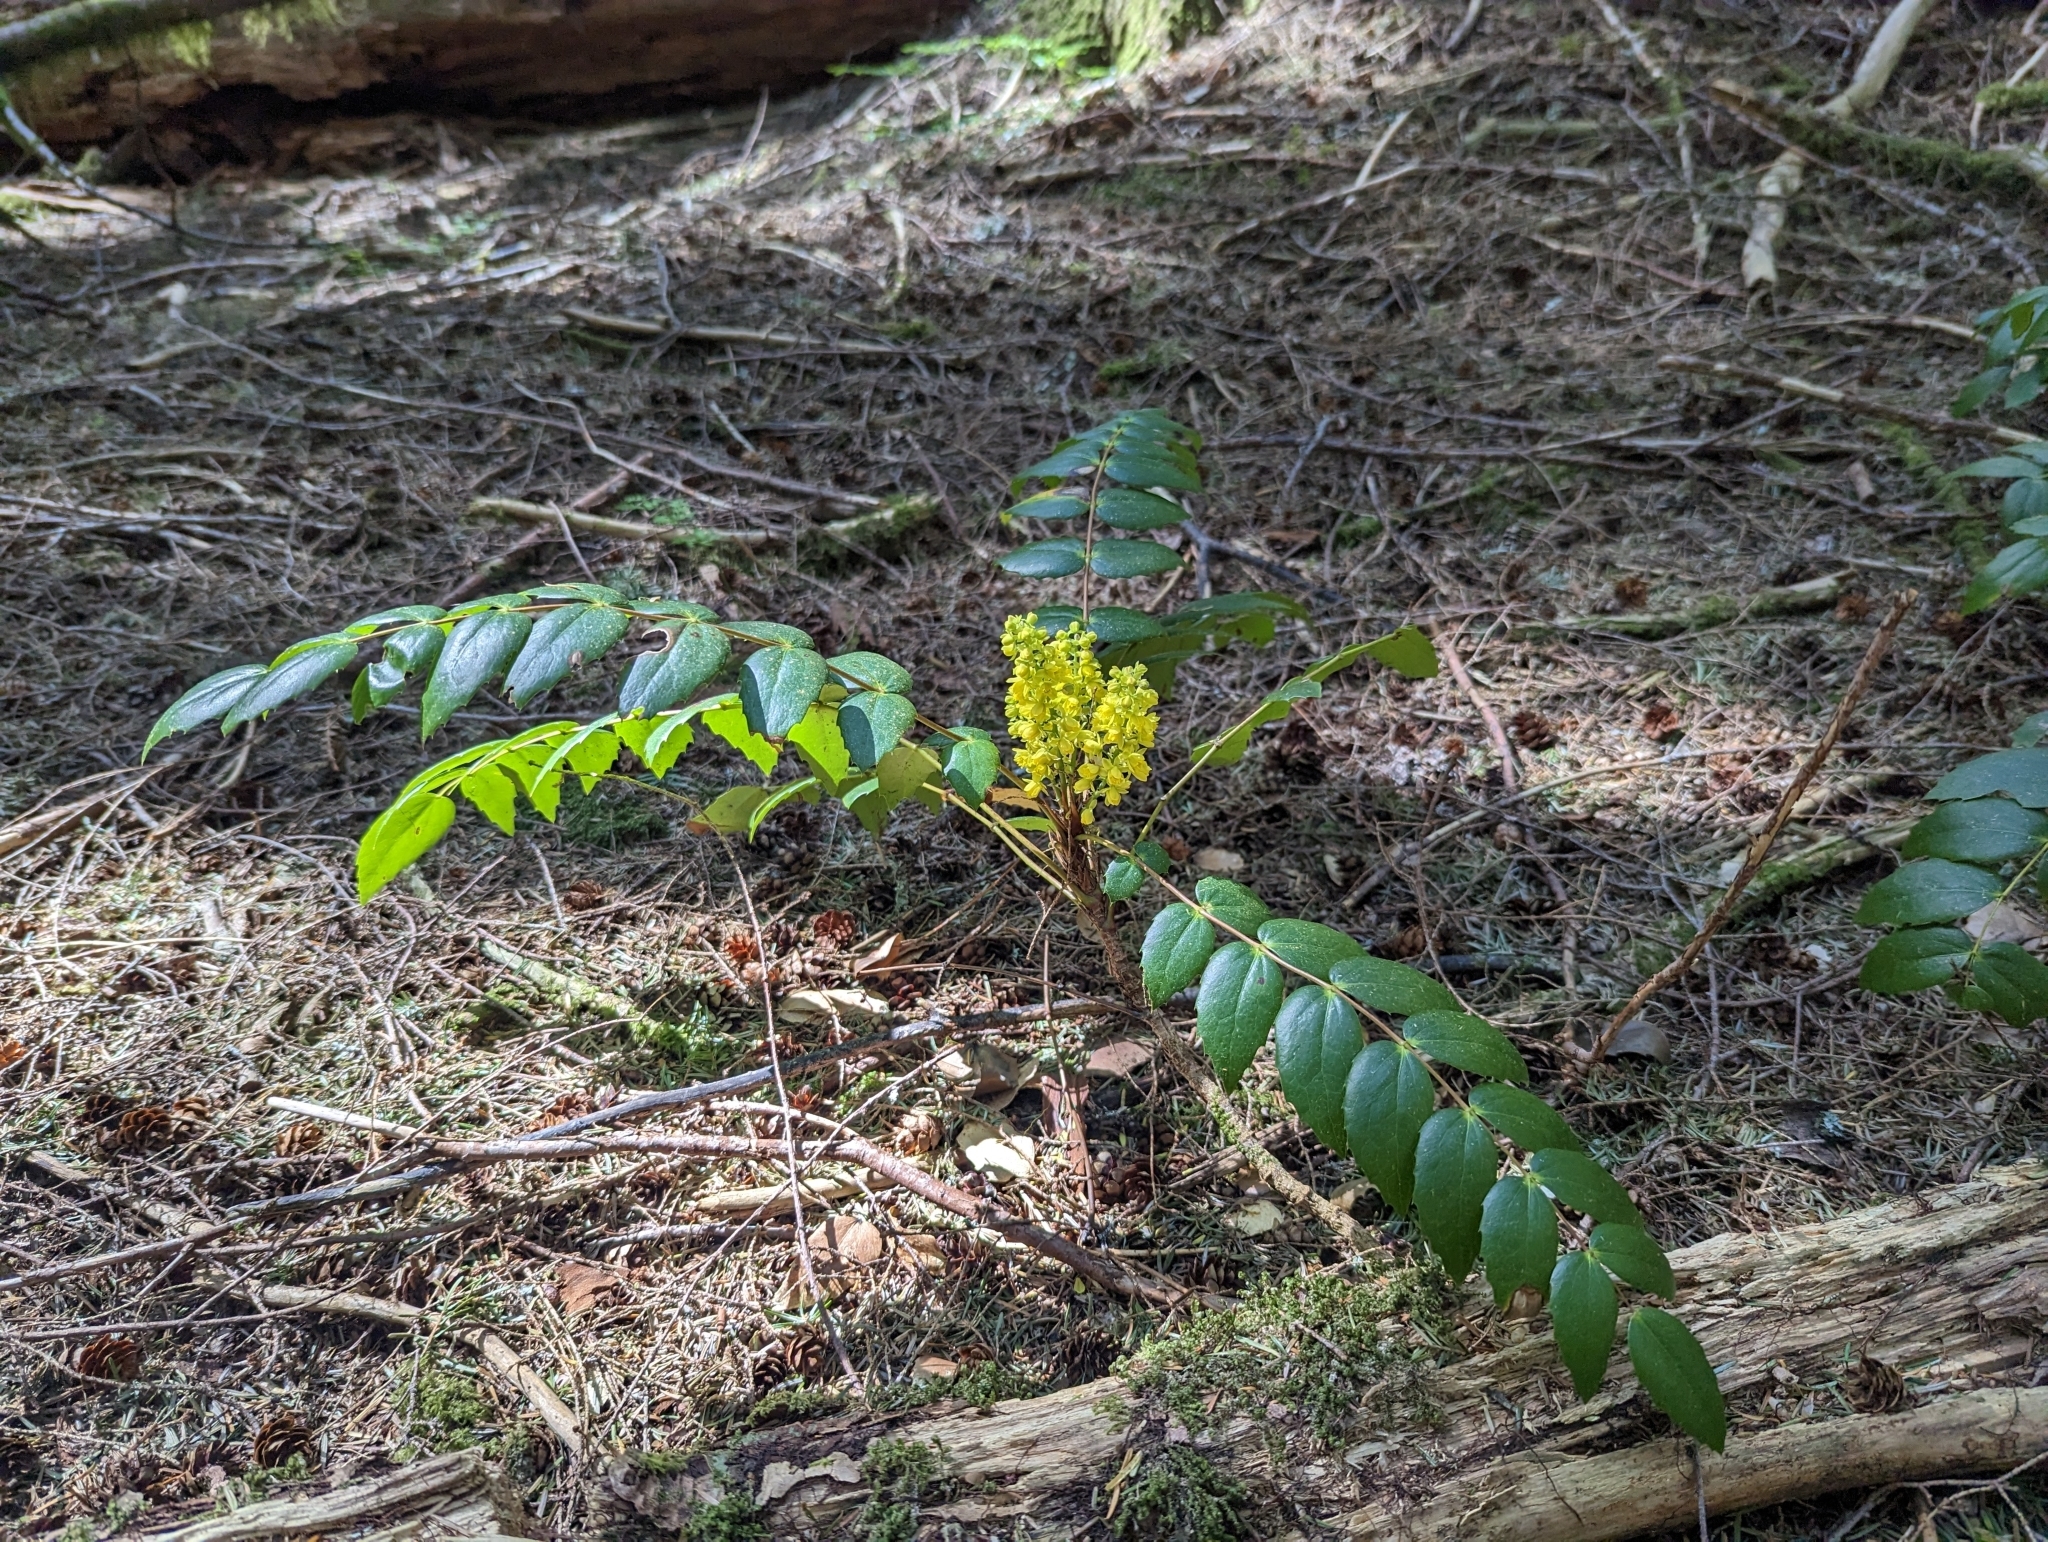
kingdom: Plantae
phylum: Tracheophyta
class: Magnoliopsida
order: Ranunculales
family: Berberidaceae
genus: Mahonia
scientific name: Mahonia nervosa
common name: Cascade oregon-grape
